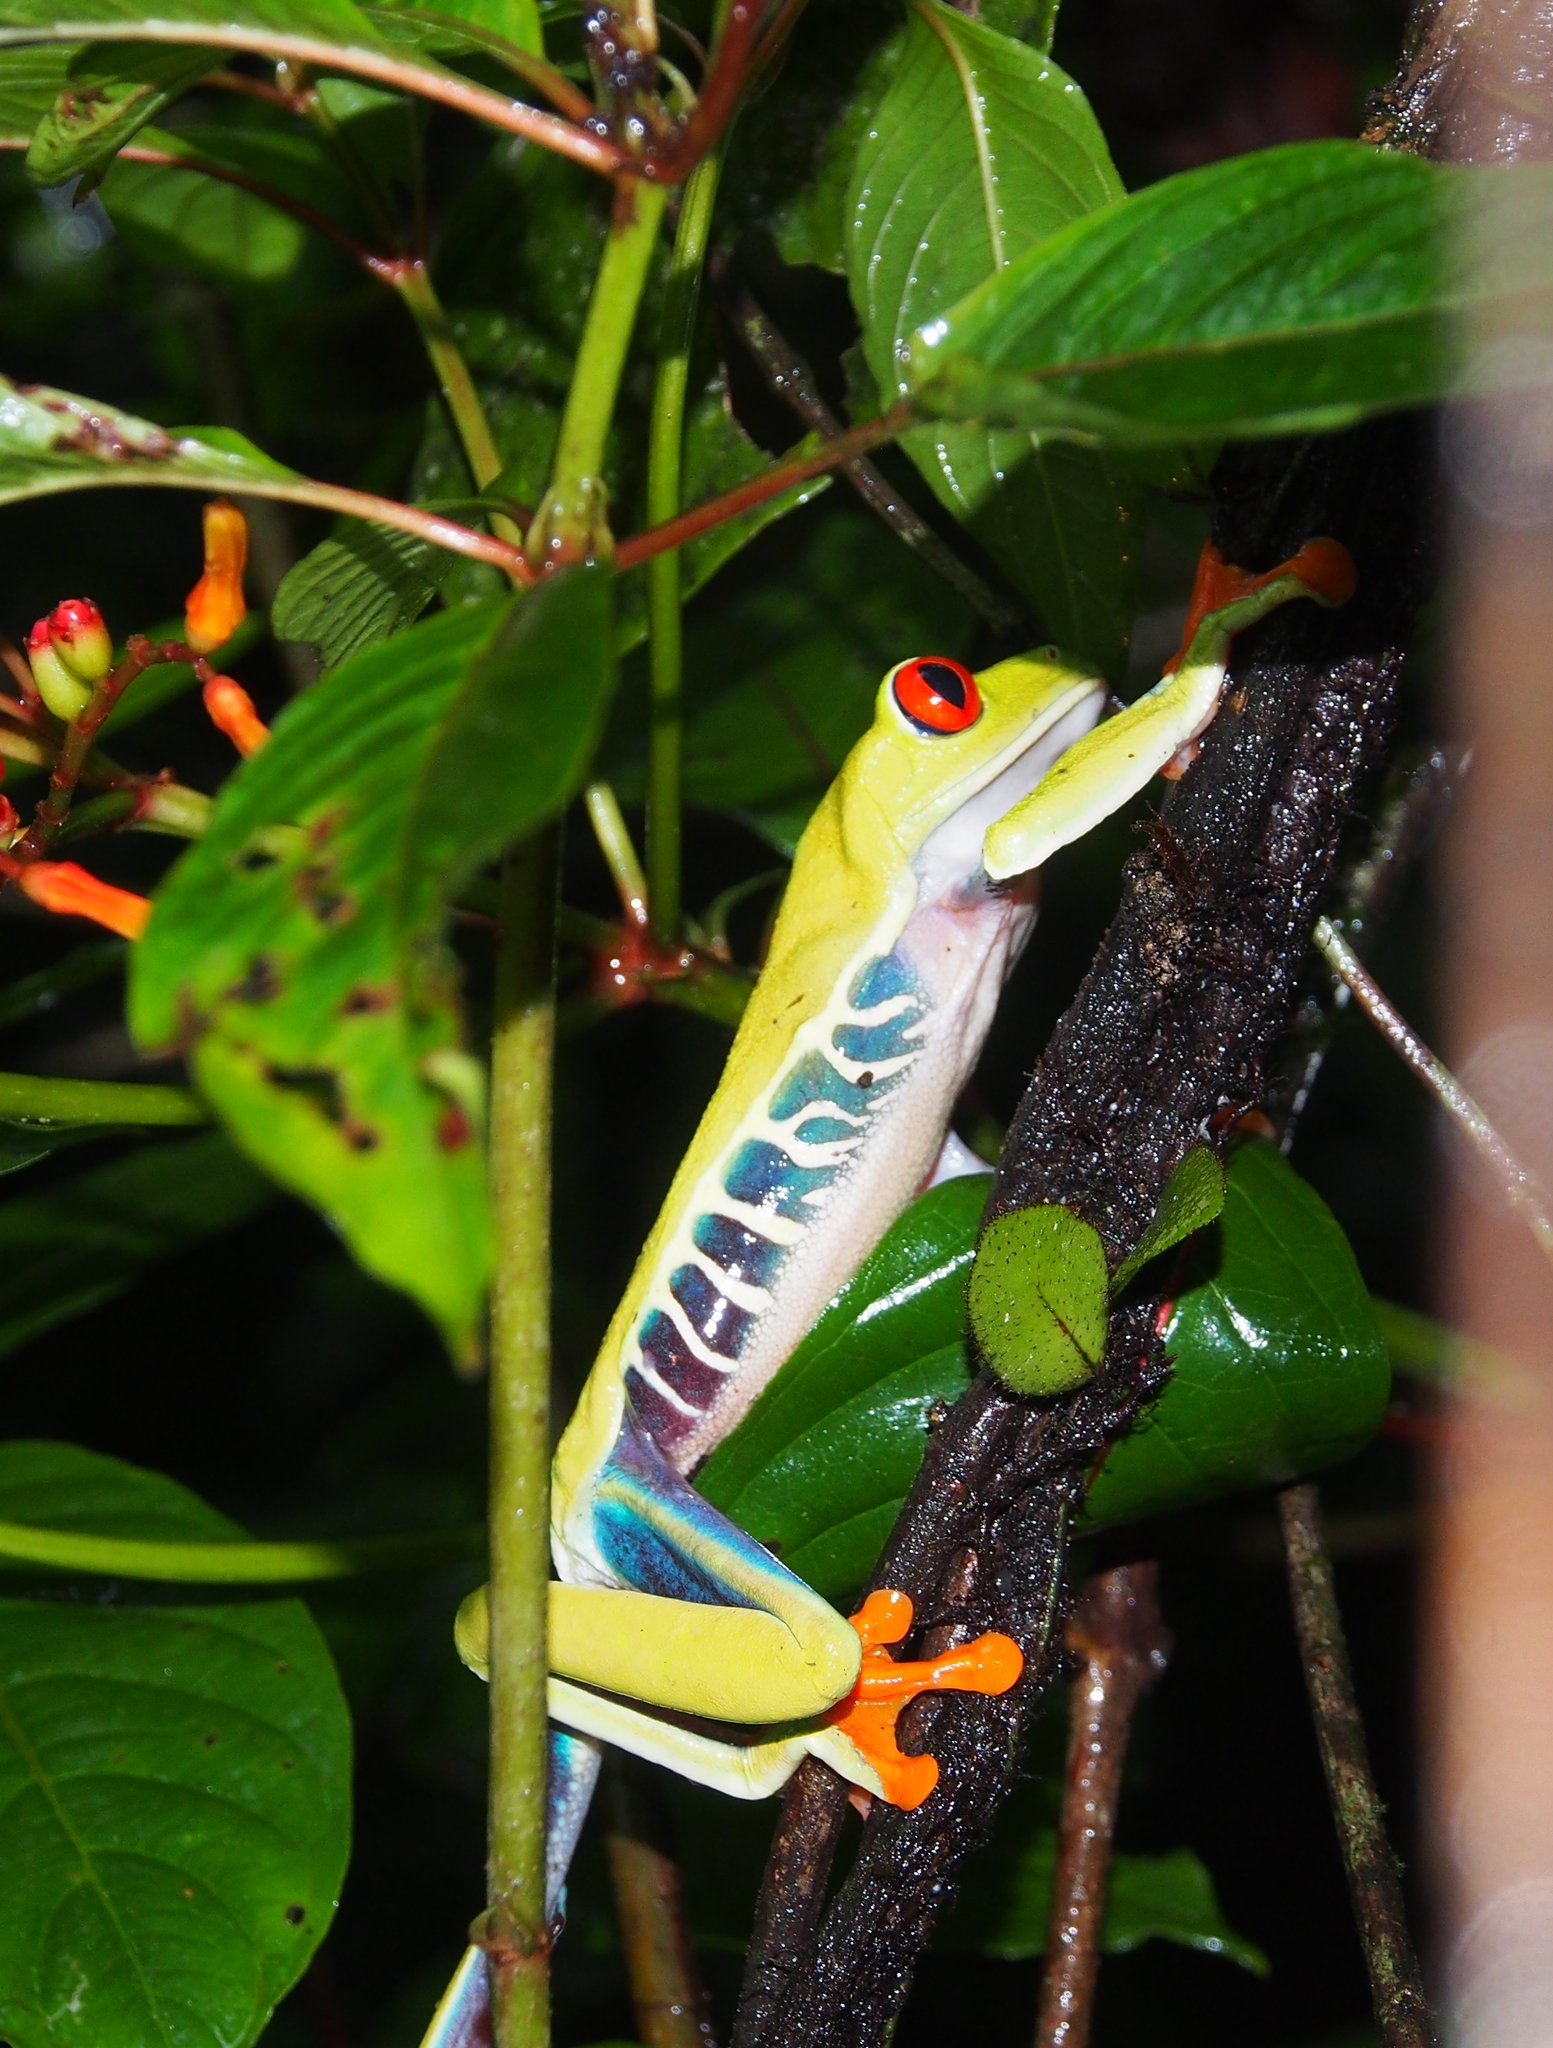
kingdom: Animalia
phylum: Chordata
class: Amphibia
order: Anura
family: Phyllomedusidae
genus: Agalychnis
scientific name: Agalychnis callidryas
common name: Red-eyed treefrog
